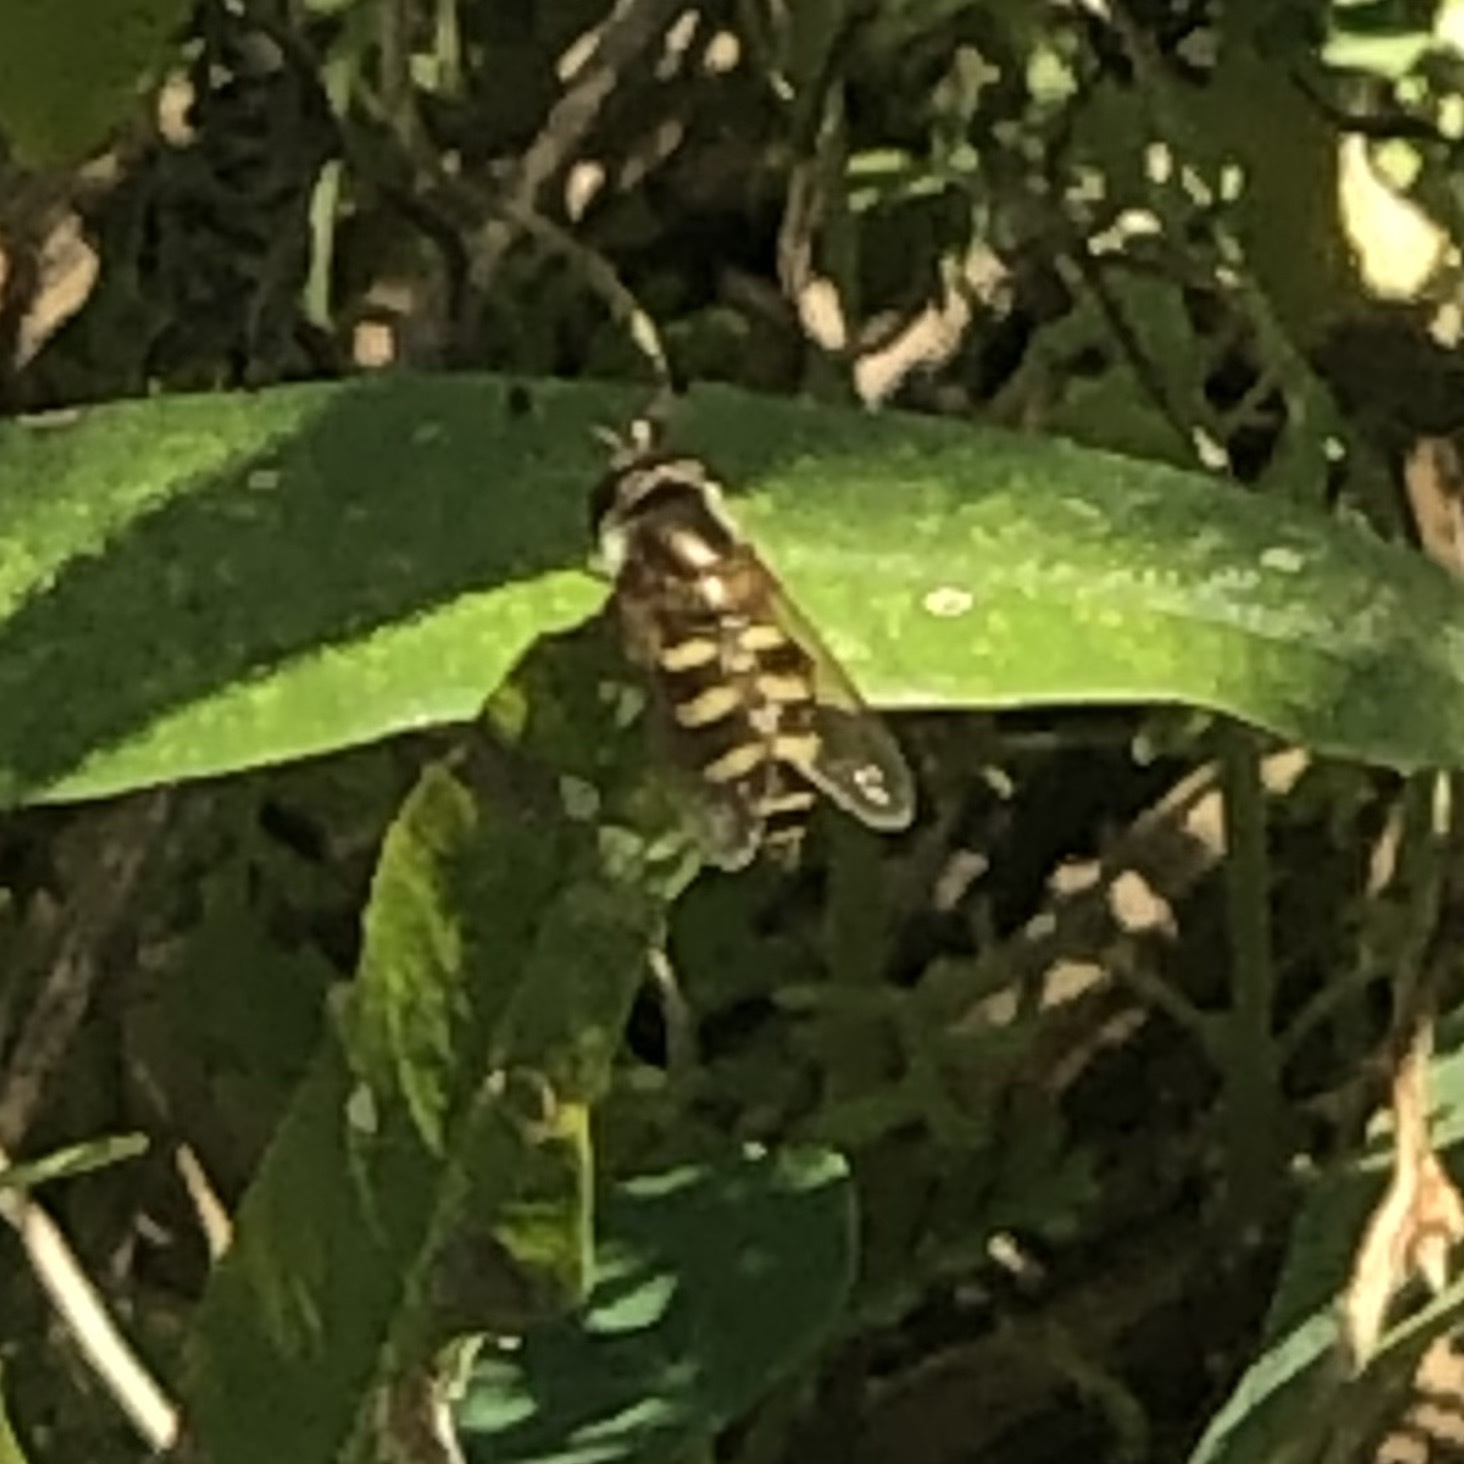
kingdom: Animalia
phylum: Arthropoda
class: Insecta
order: Diptera
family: Syrphidae
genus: Eupeodes
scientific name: Eupeodes fumipennis
